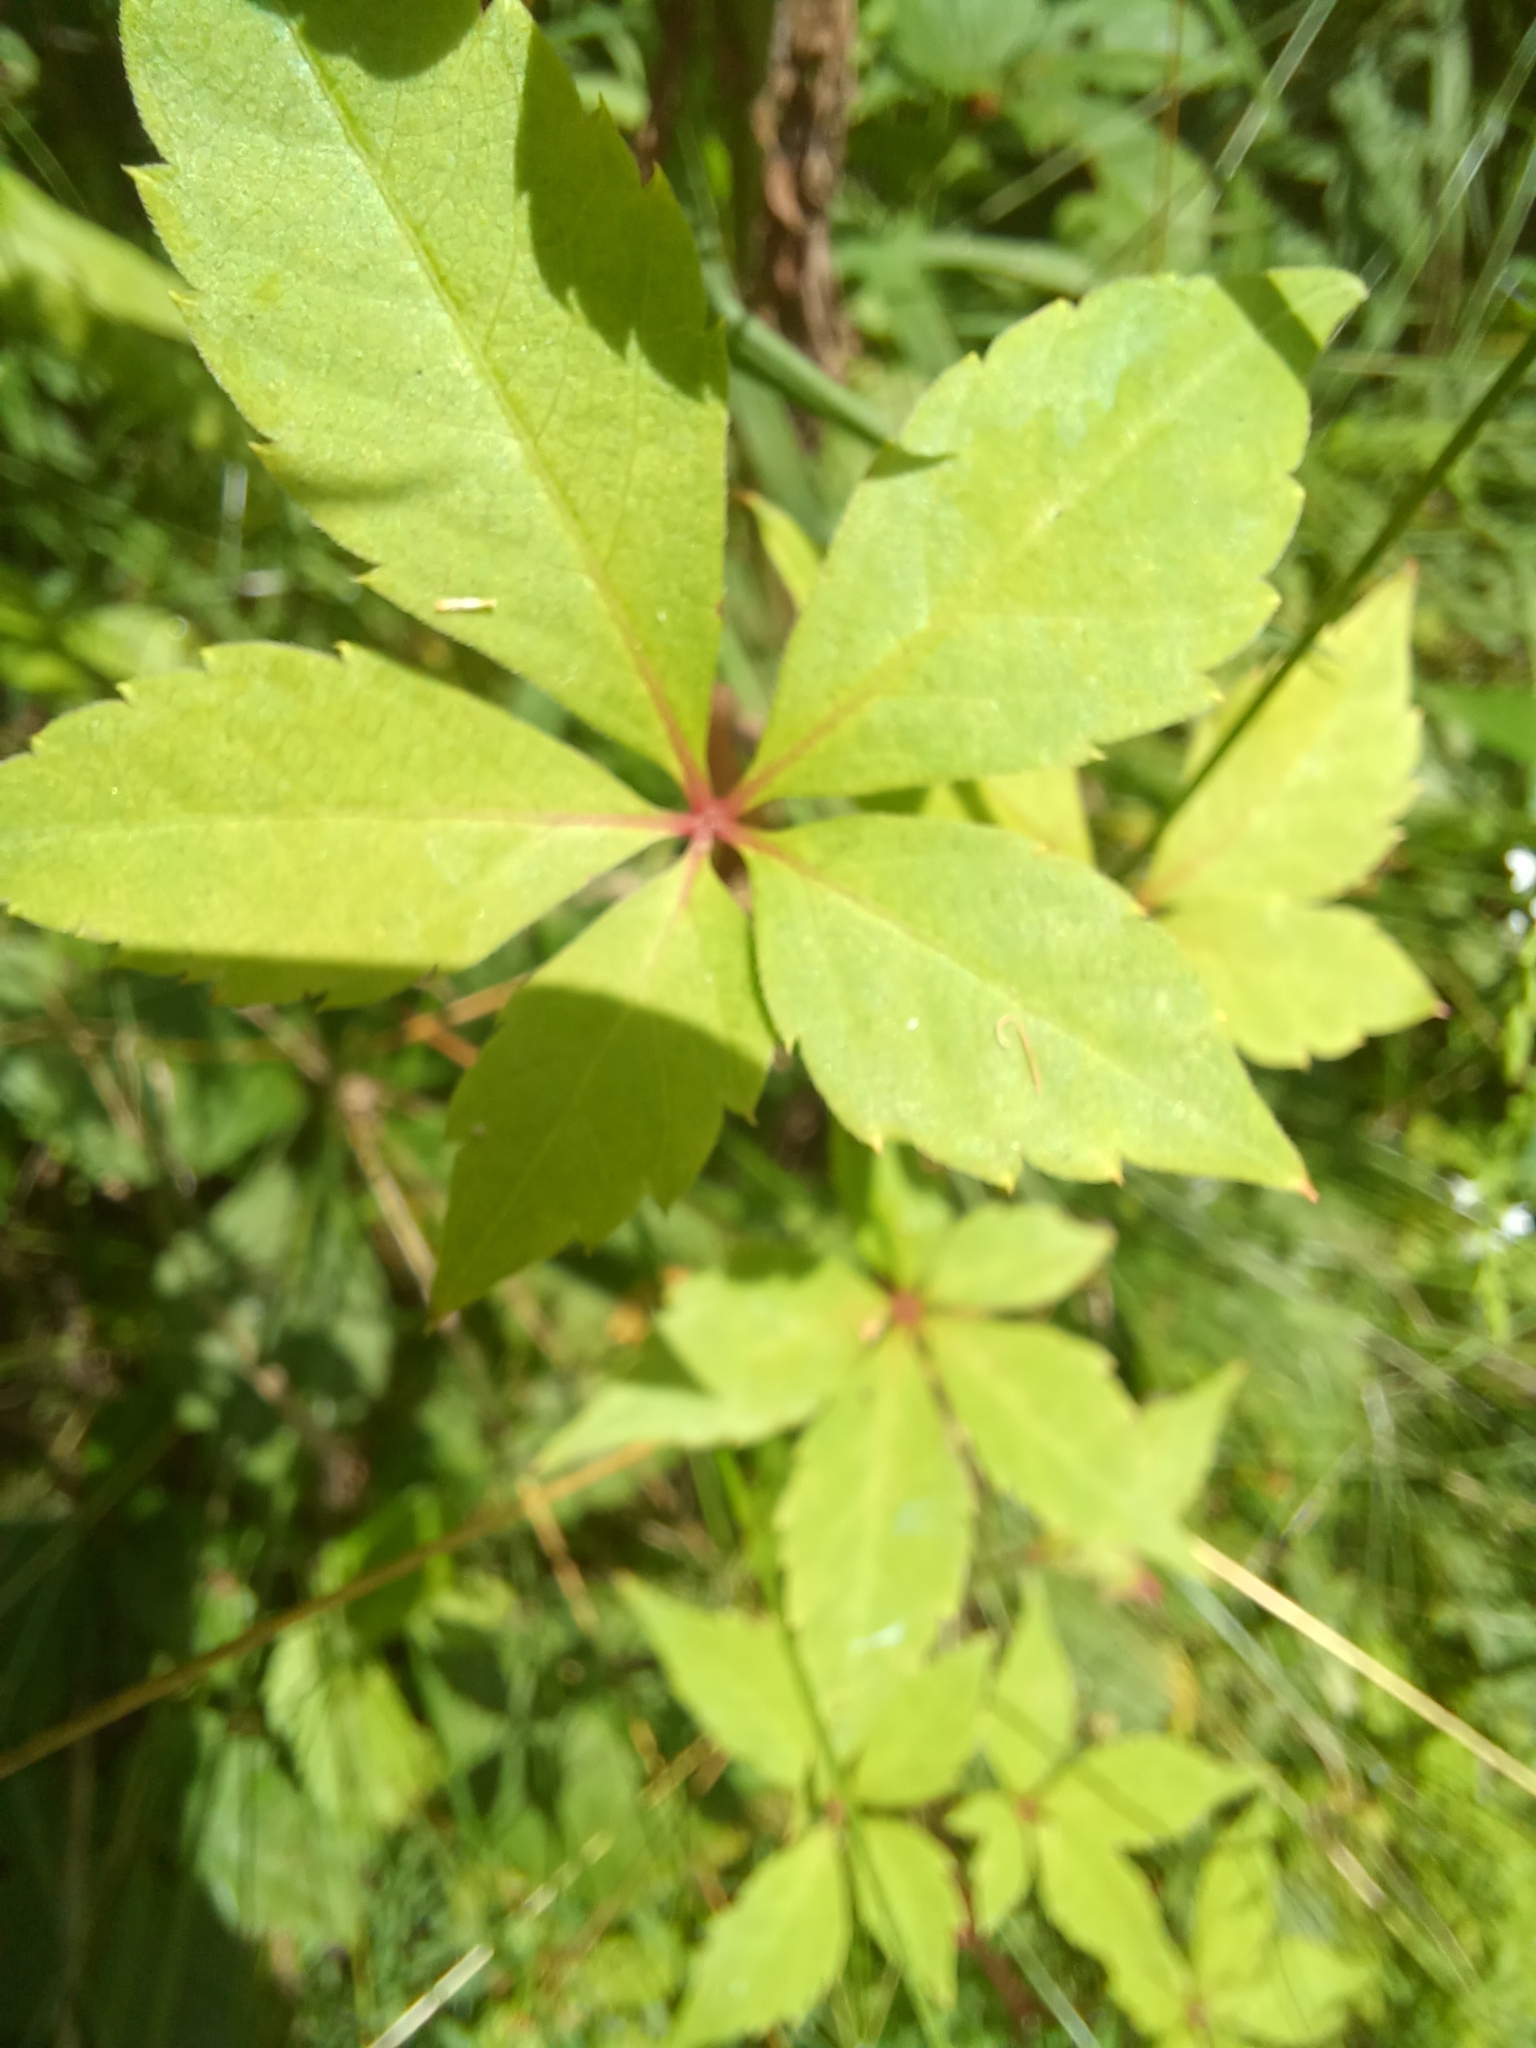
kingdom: Plantae
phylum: Tracheophyta
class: Magnoliopsida
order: Vitales
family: Vitaceae
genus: Parthenocissus
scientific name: Parthenocissus quinquefolia
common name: Virginia-creeper
